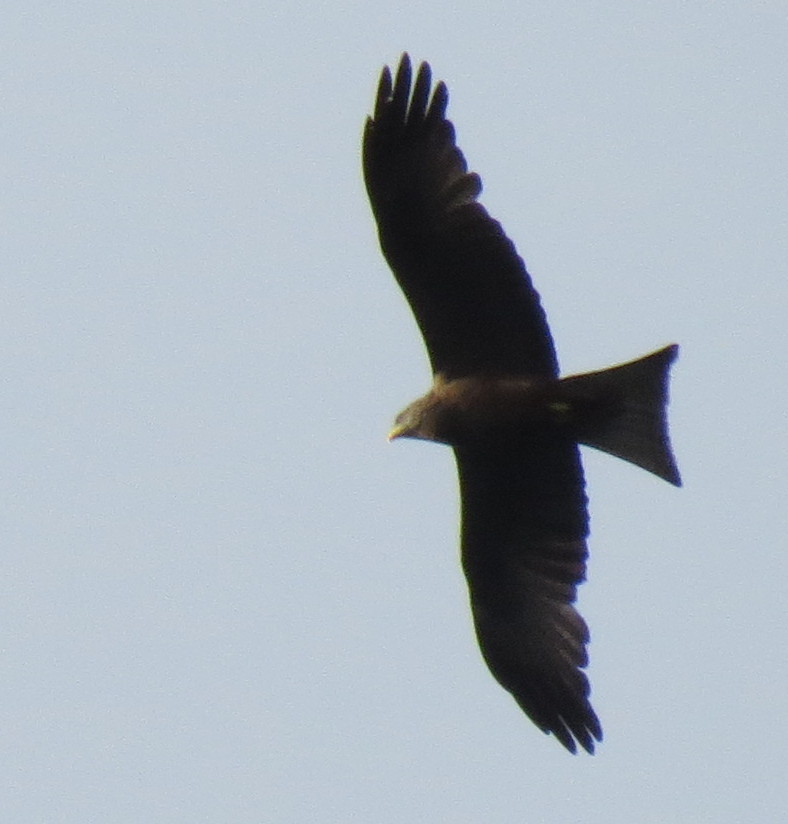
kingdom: Animalia
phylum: Chordata
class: Aves
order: Accipitriformes
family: Accipitridae
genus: Milvus
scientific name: Milvus migrans
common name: Black kite
